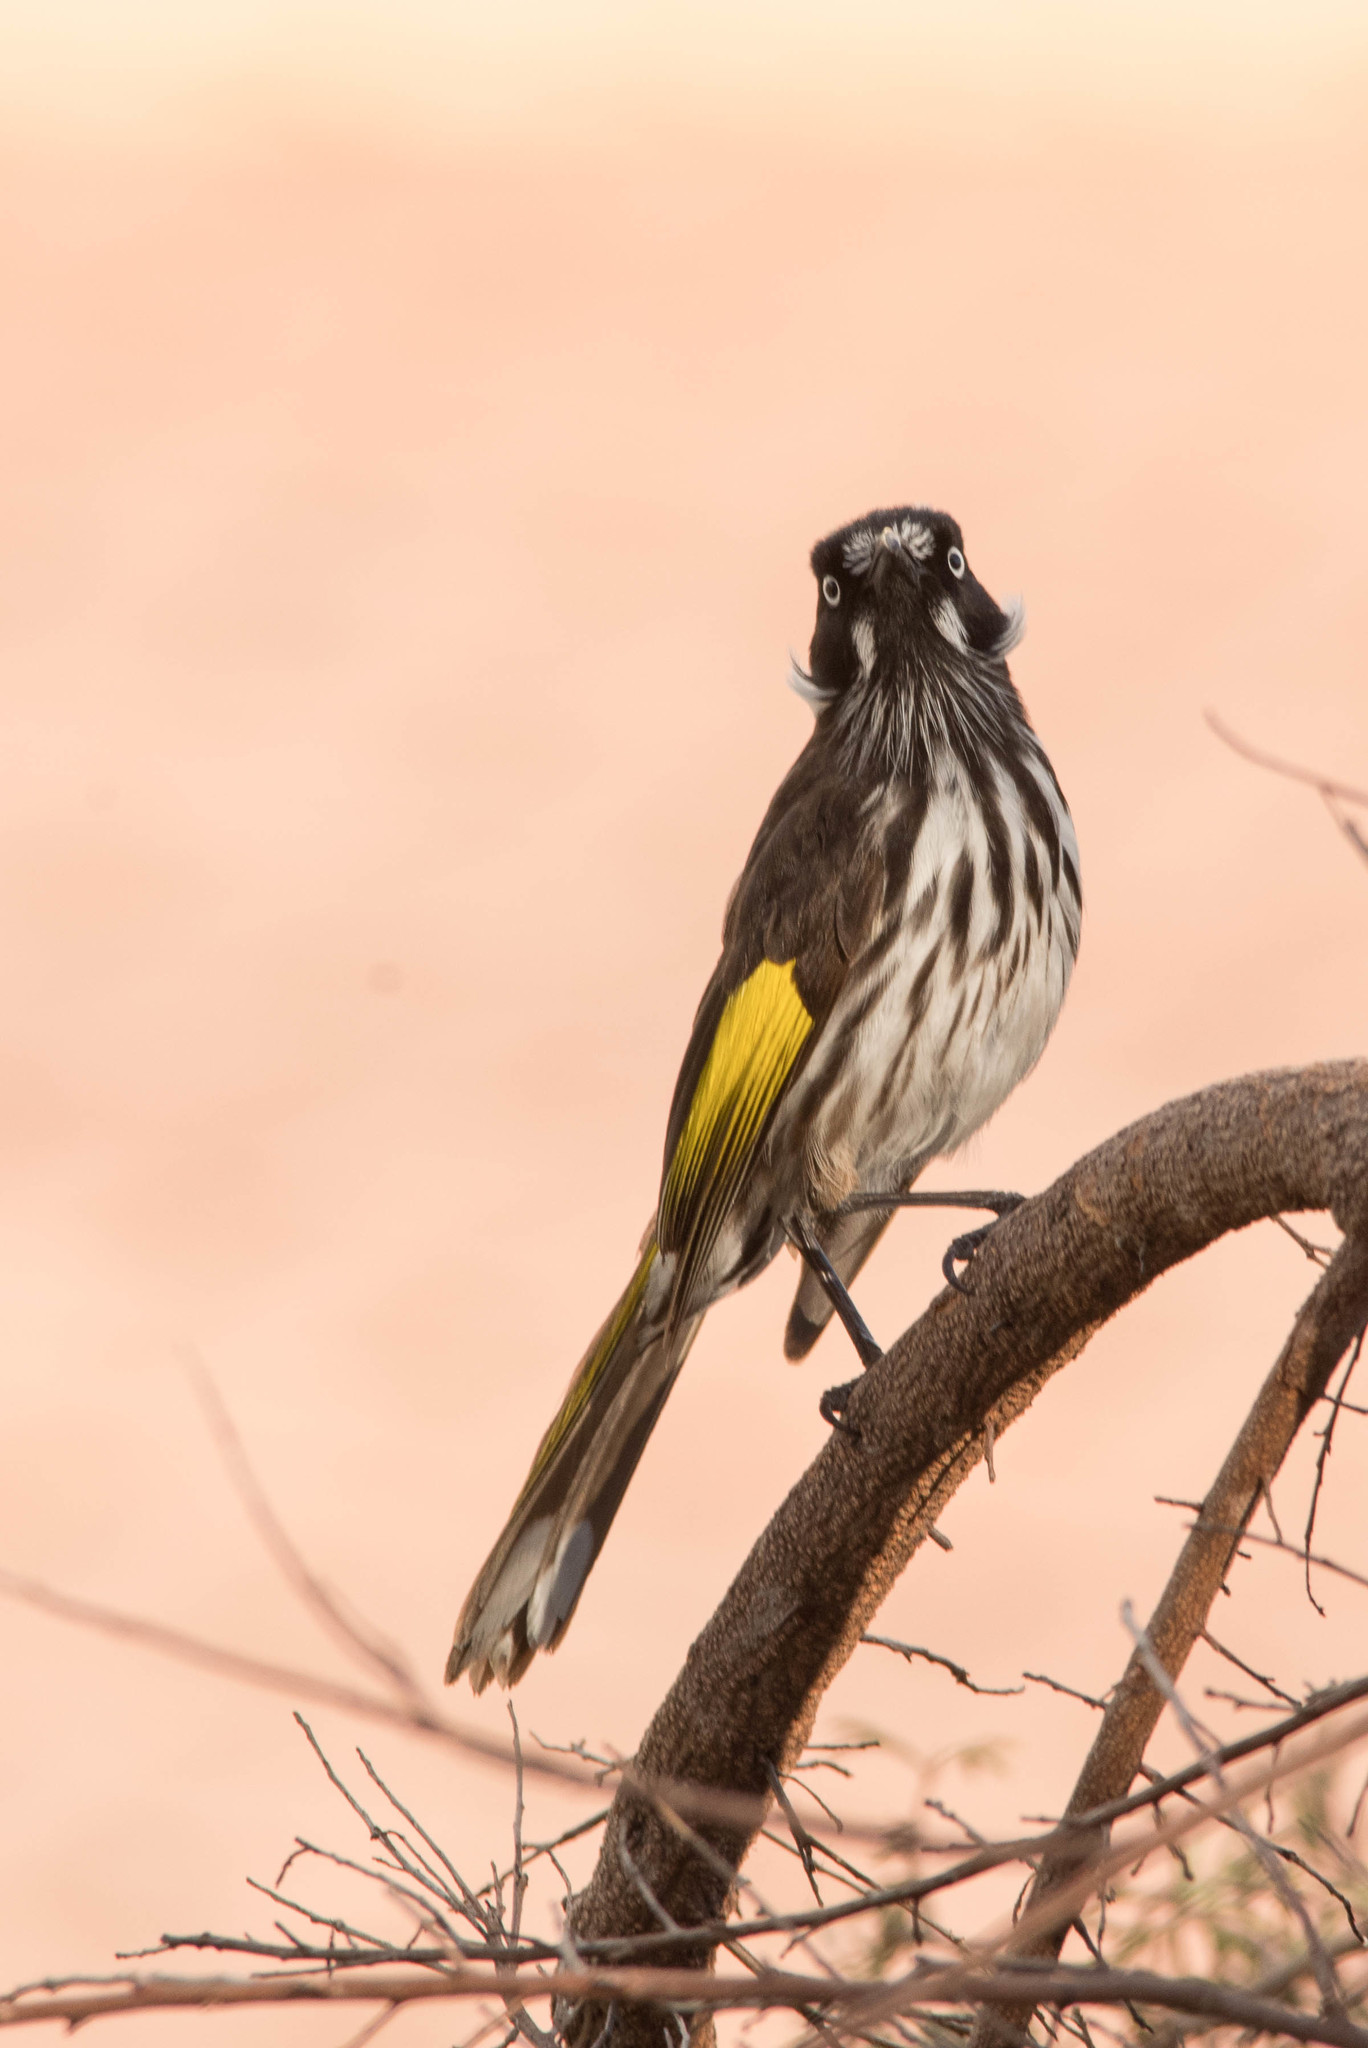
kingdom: Animalia
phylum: Chordata
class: Aves
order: Passeriformes
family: Meliphagidae
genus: Phylidonyris
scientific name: Phylidonyris novaehollandiae
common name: New holland honeyeater
